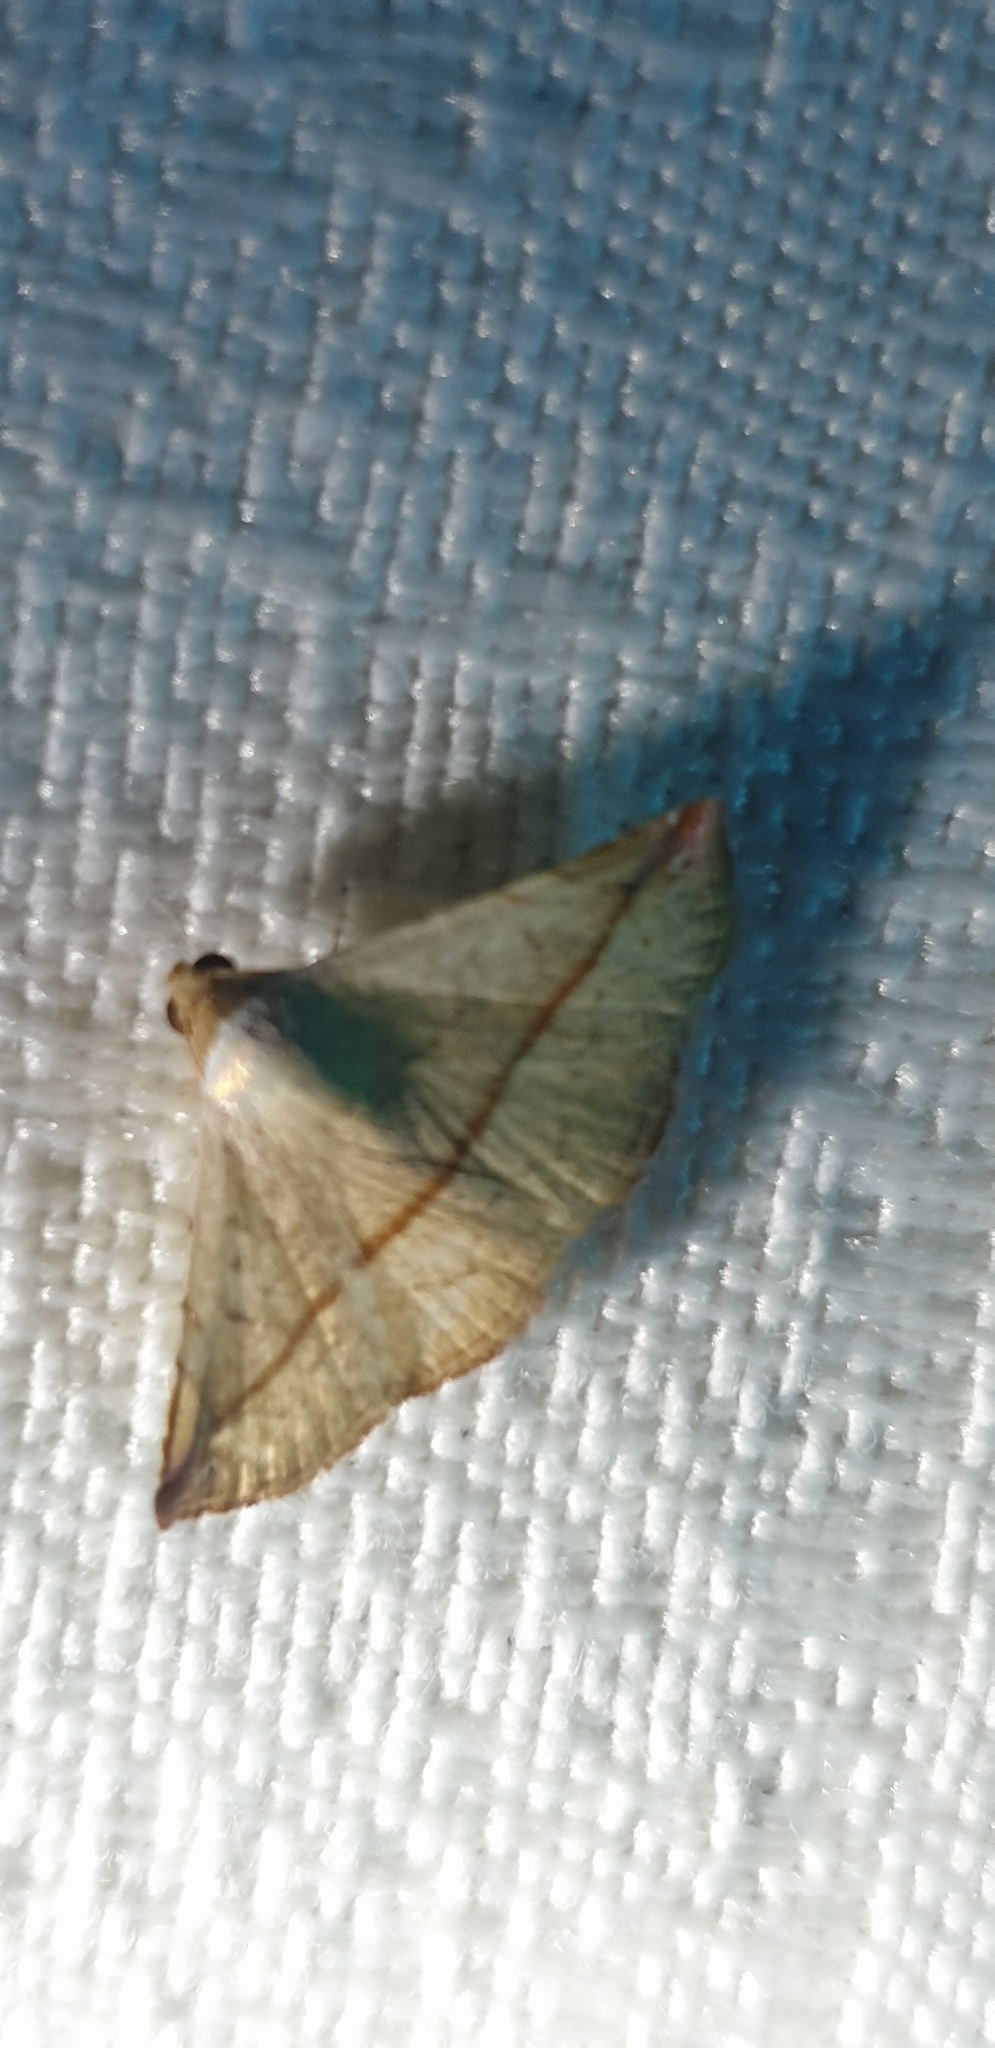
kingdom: Animalia
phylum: Arthropoda
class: Insecta
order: Lepidoptera
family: Noctuidae
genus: Eublemma
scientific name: Eublemma perversicolor
